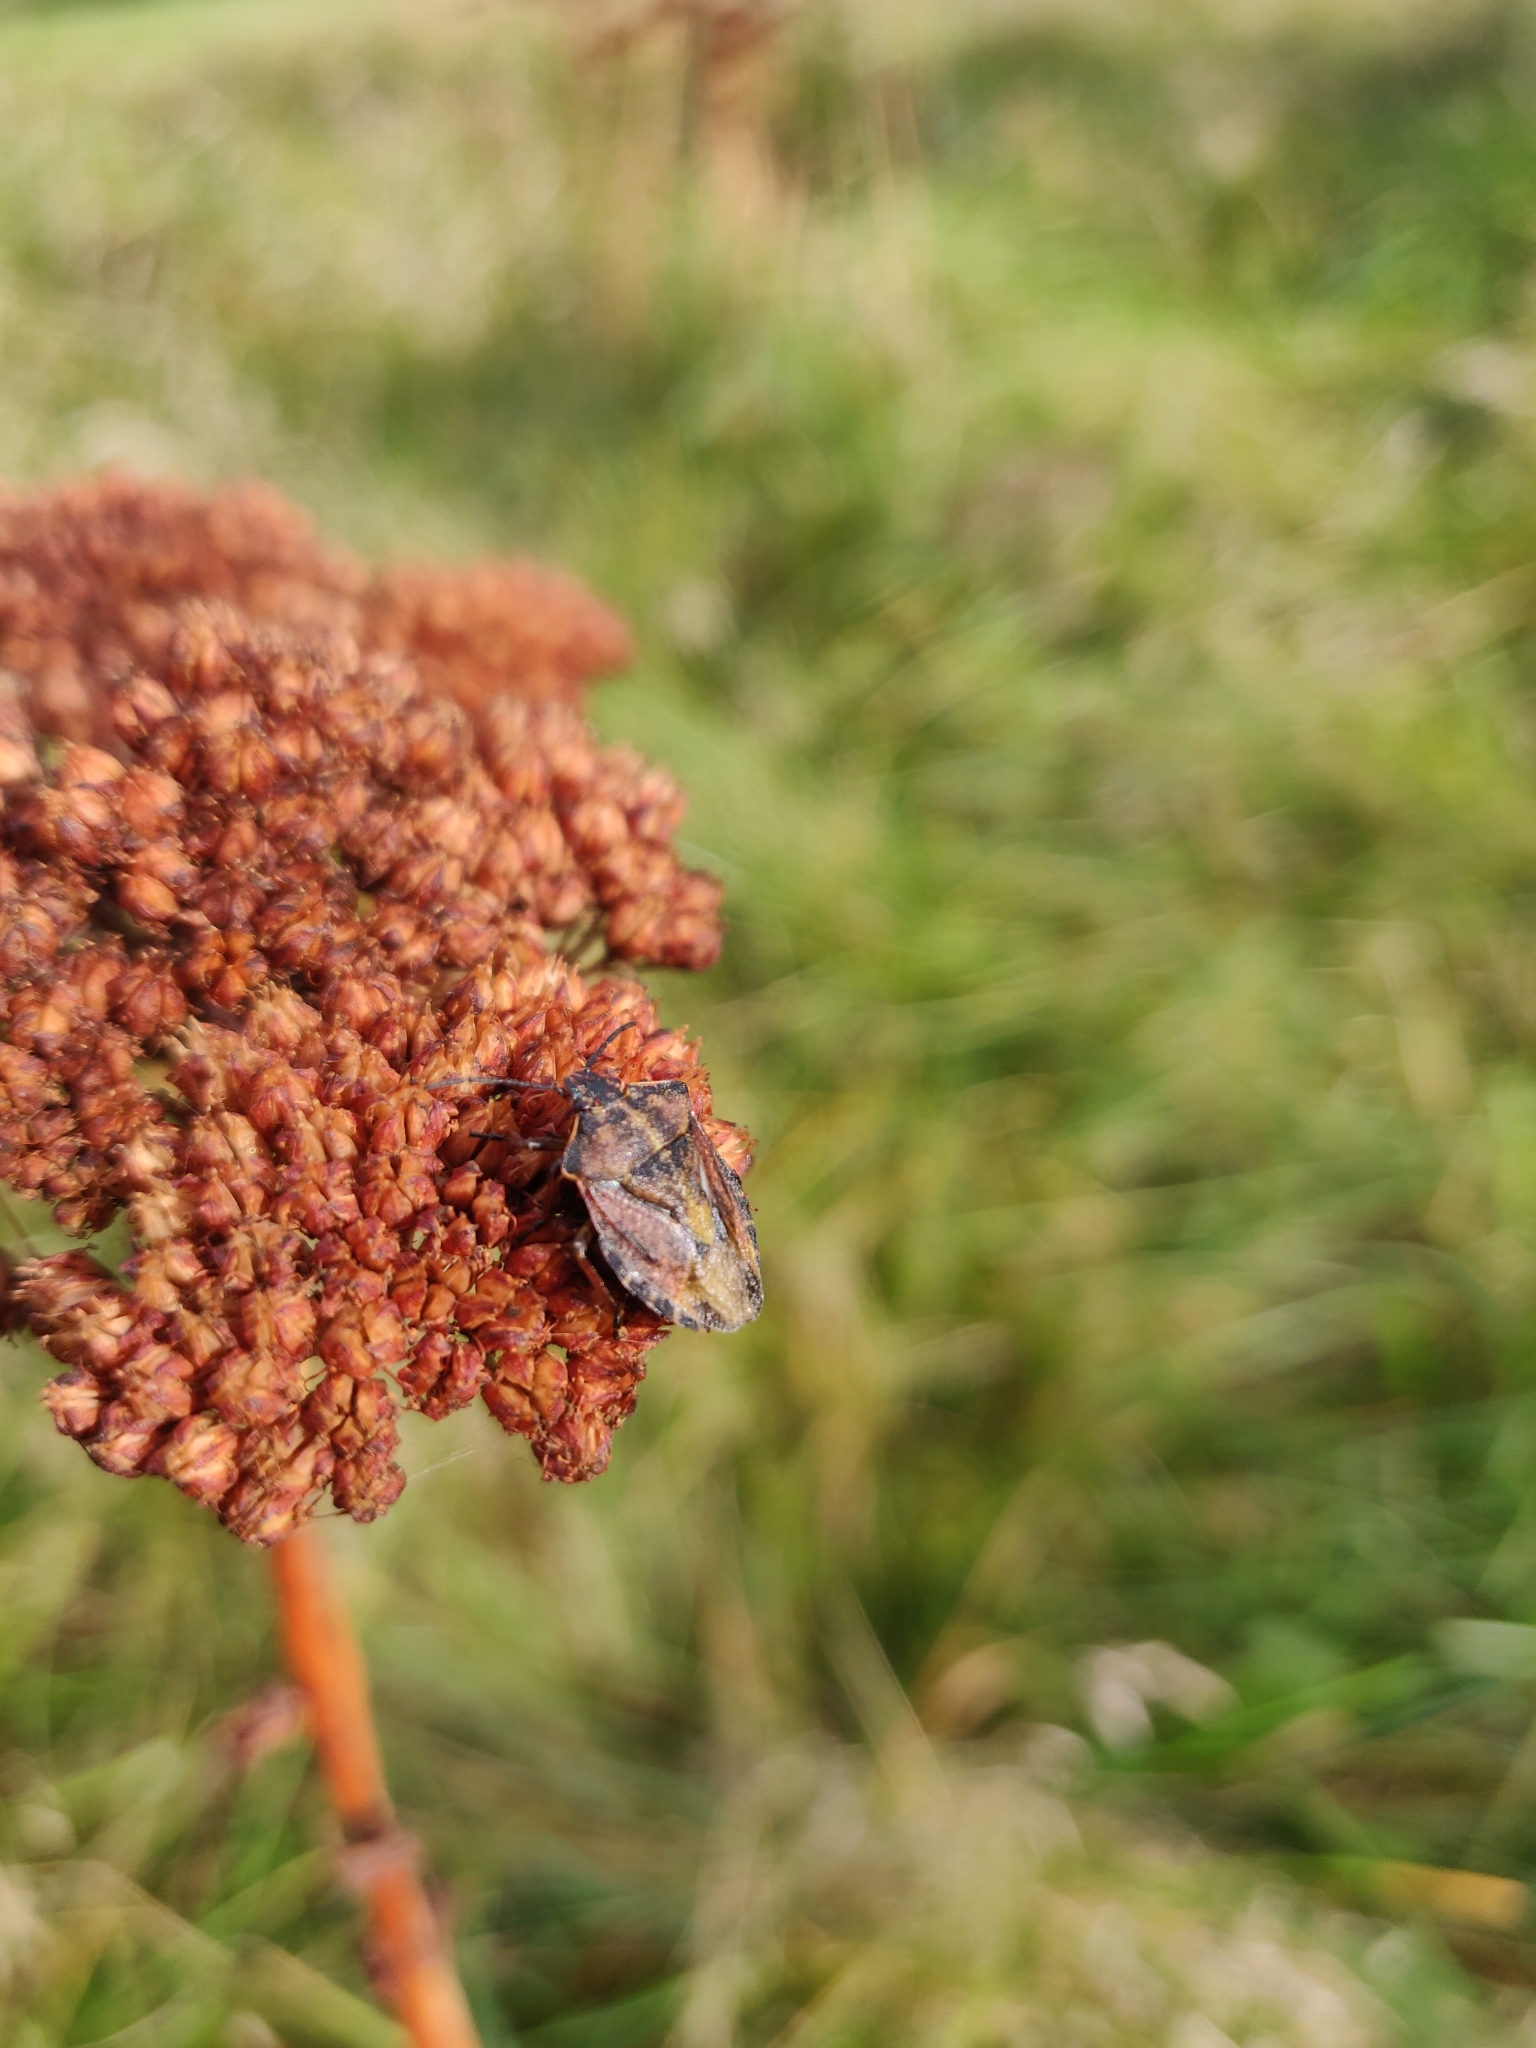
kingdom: Animalia
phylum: Arthropoda
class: Insecta
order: Hemiptera
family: Pentatomidae
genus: Carpocoris
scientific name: Carpocoris purpureipennis
